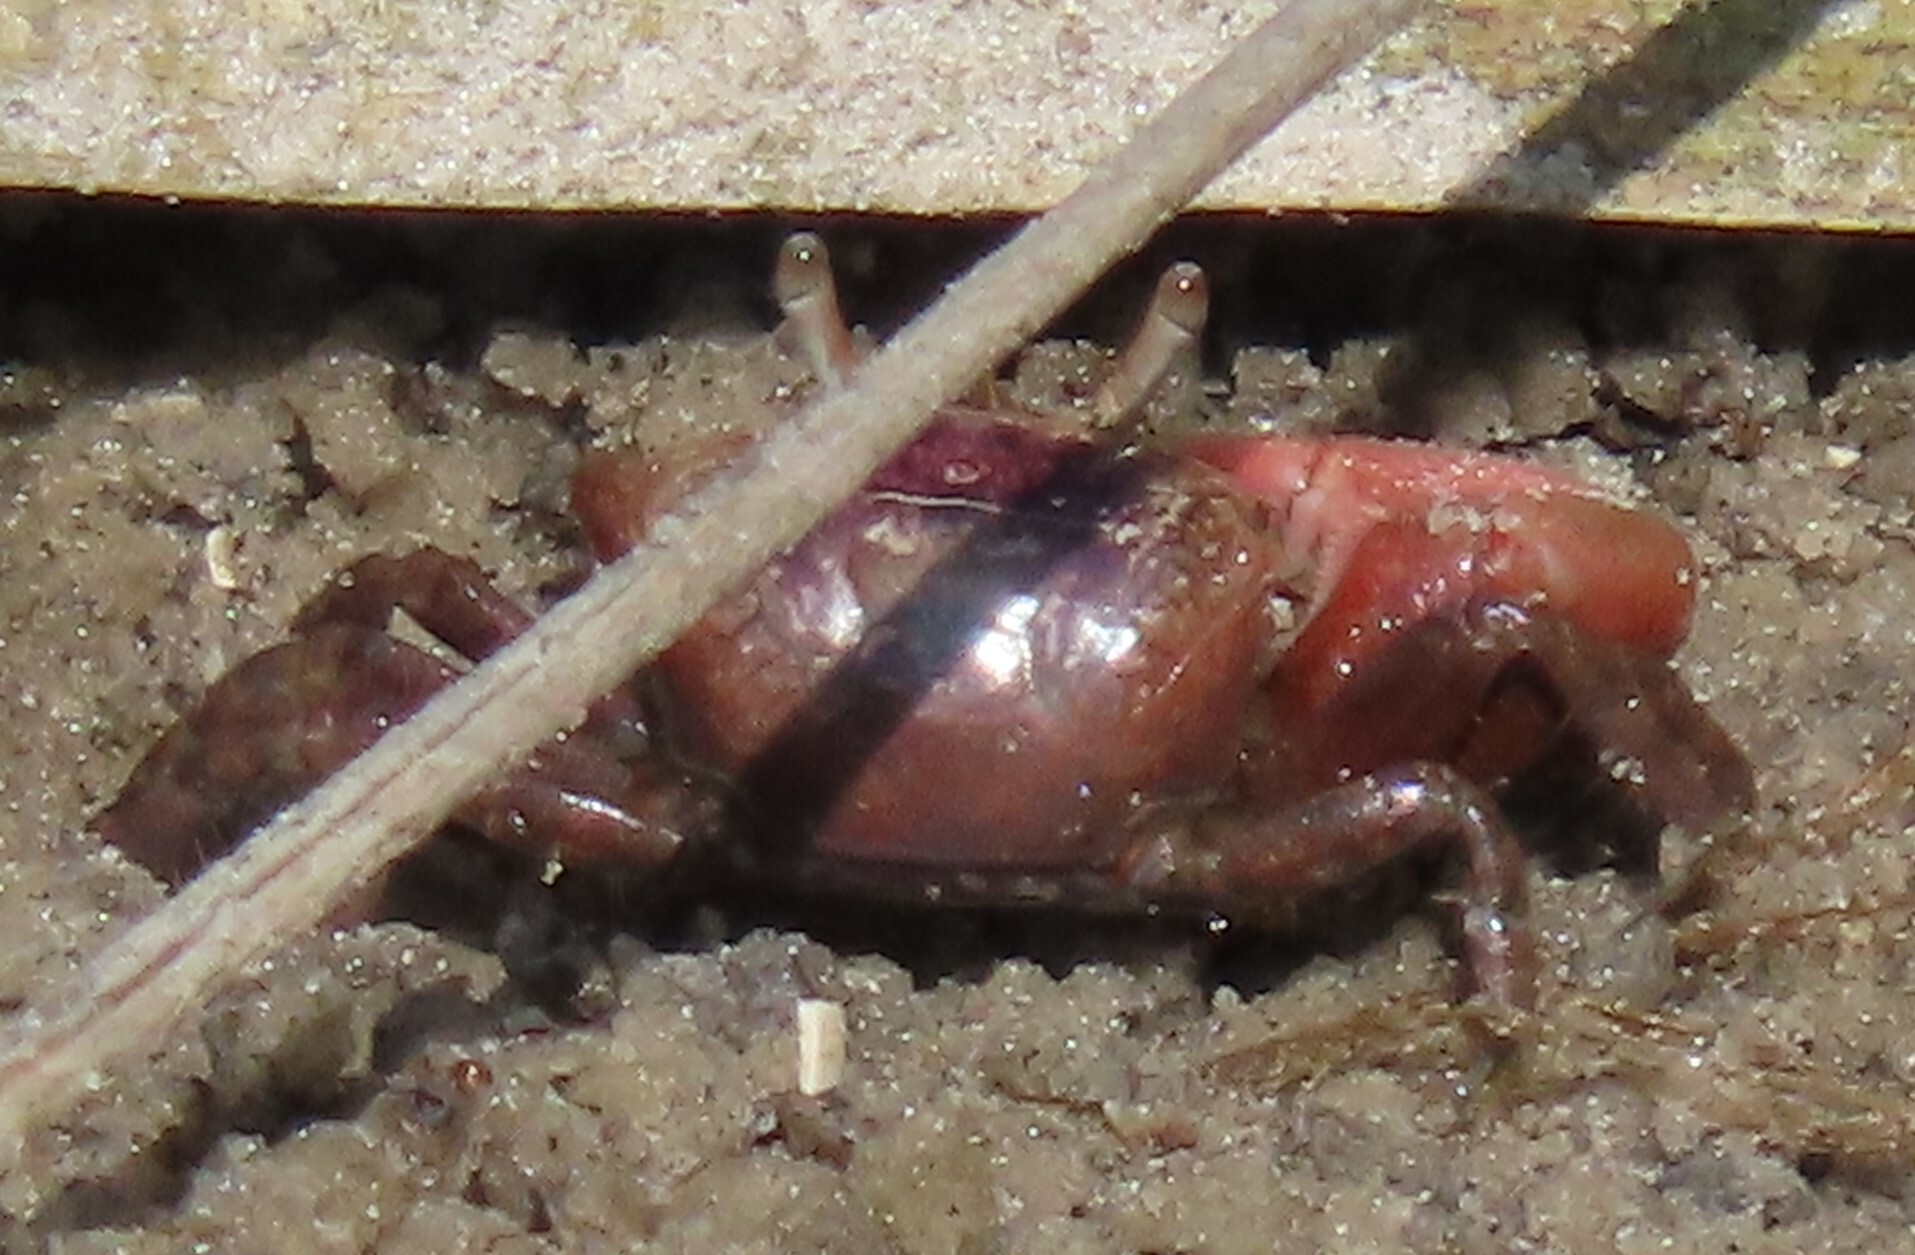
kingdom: Animalia
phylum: Arthropoda
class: Malacostraca
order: Decapoda
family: Ocypodidae
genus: Leptuca
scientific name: Leptuca pugilator
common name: Atlantic sand fiddler crab
